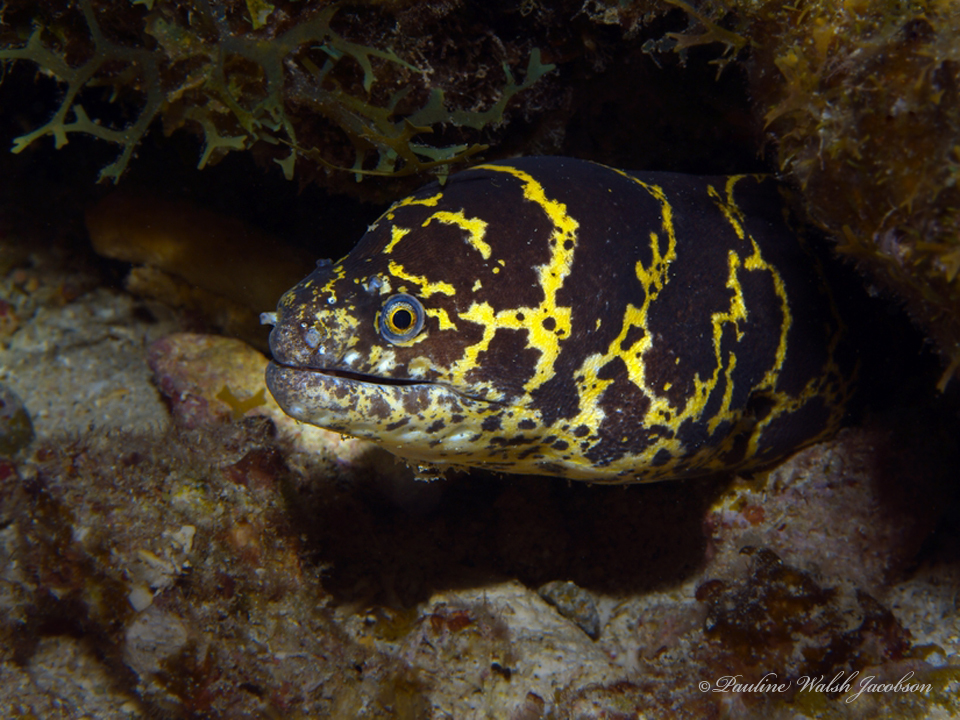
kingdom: Animalia
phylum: Chordata
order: Anguilliformes
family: Muraenidae
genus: Echidna
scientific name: Echidna catenata
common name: Chain moray
